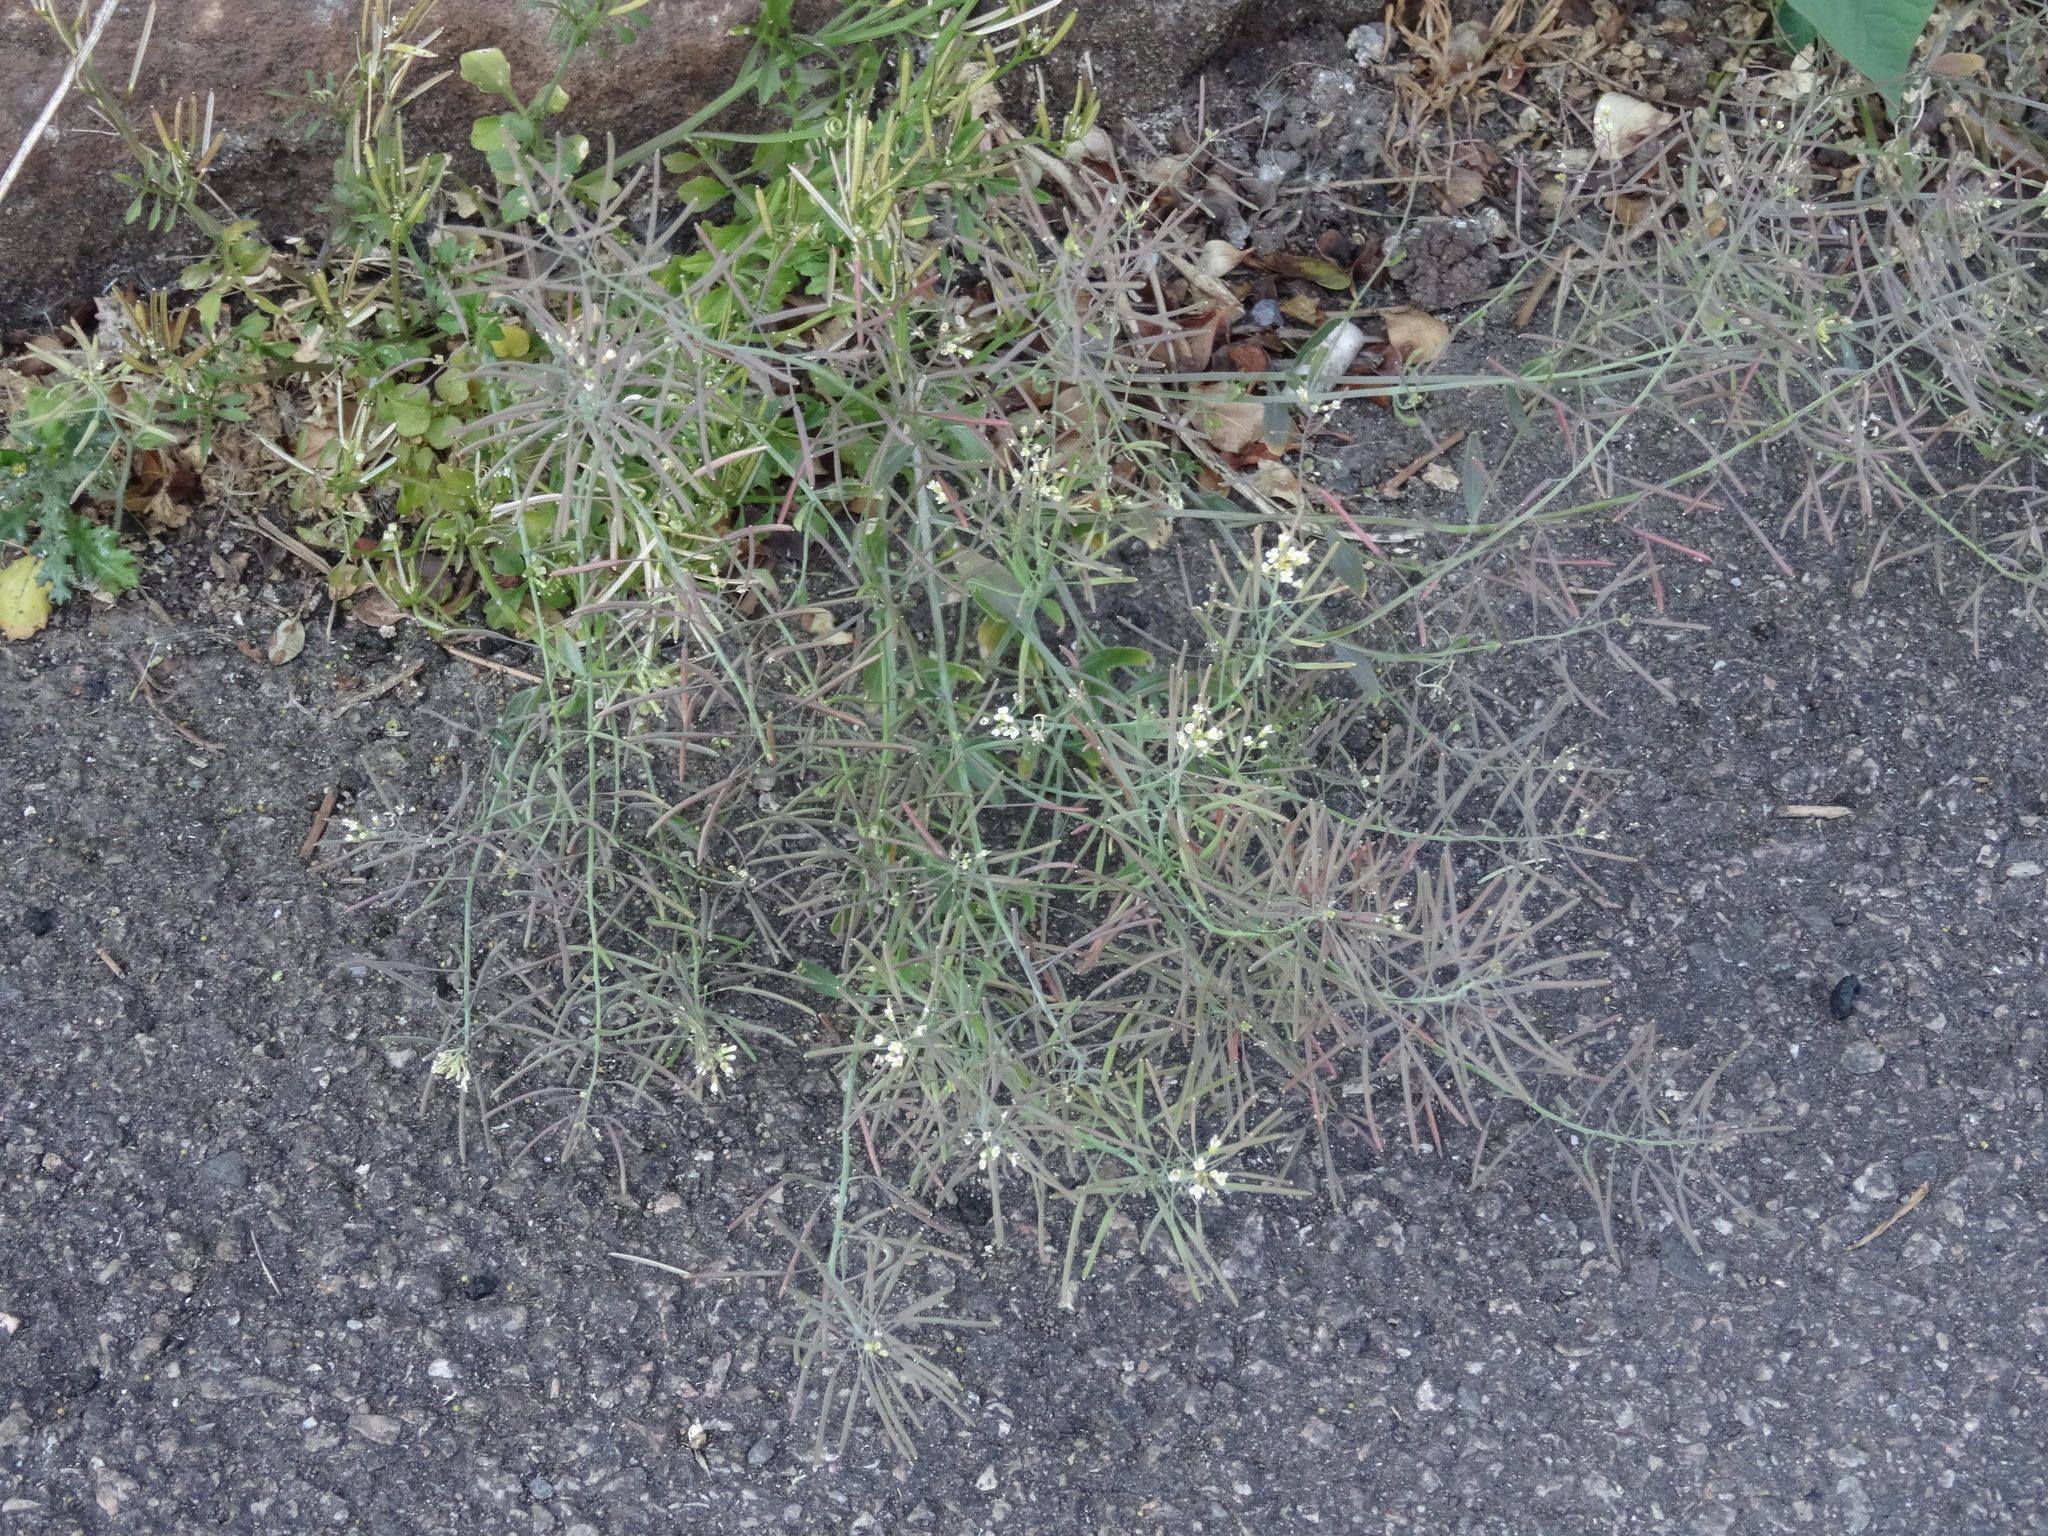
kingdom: Plantae
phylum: Tracheophyta
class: Magnoliopsida
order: Brassicales
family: Brassicaceae
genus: Arabidopsis
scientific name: Arabidopsis thaliana
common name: Thale cress
